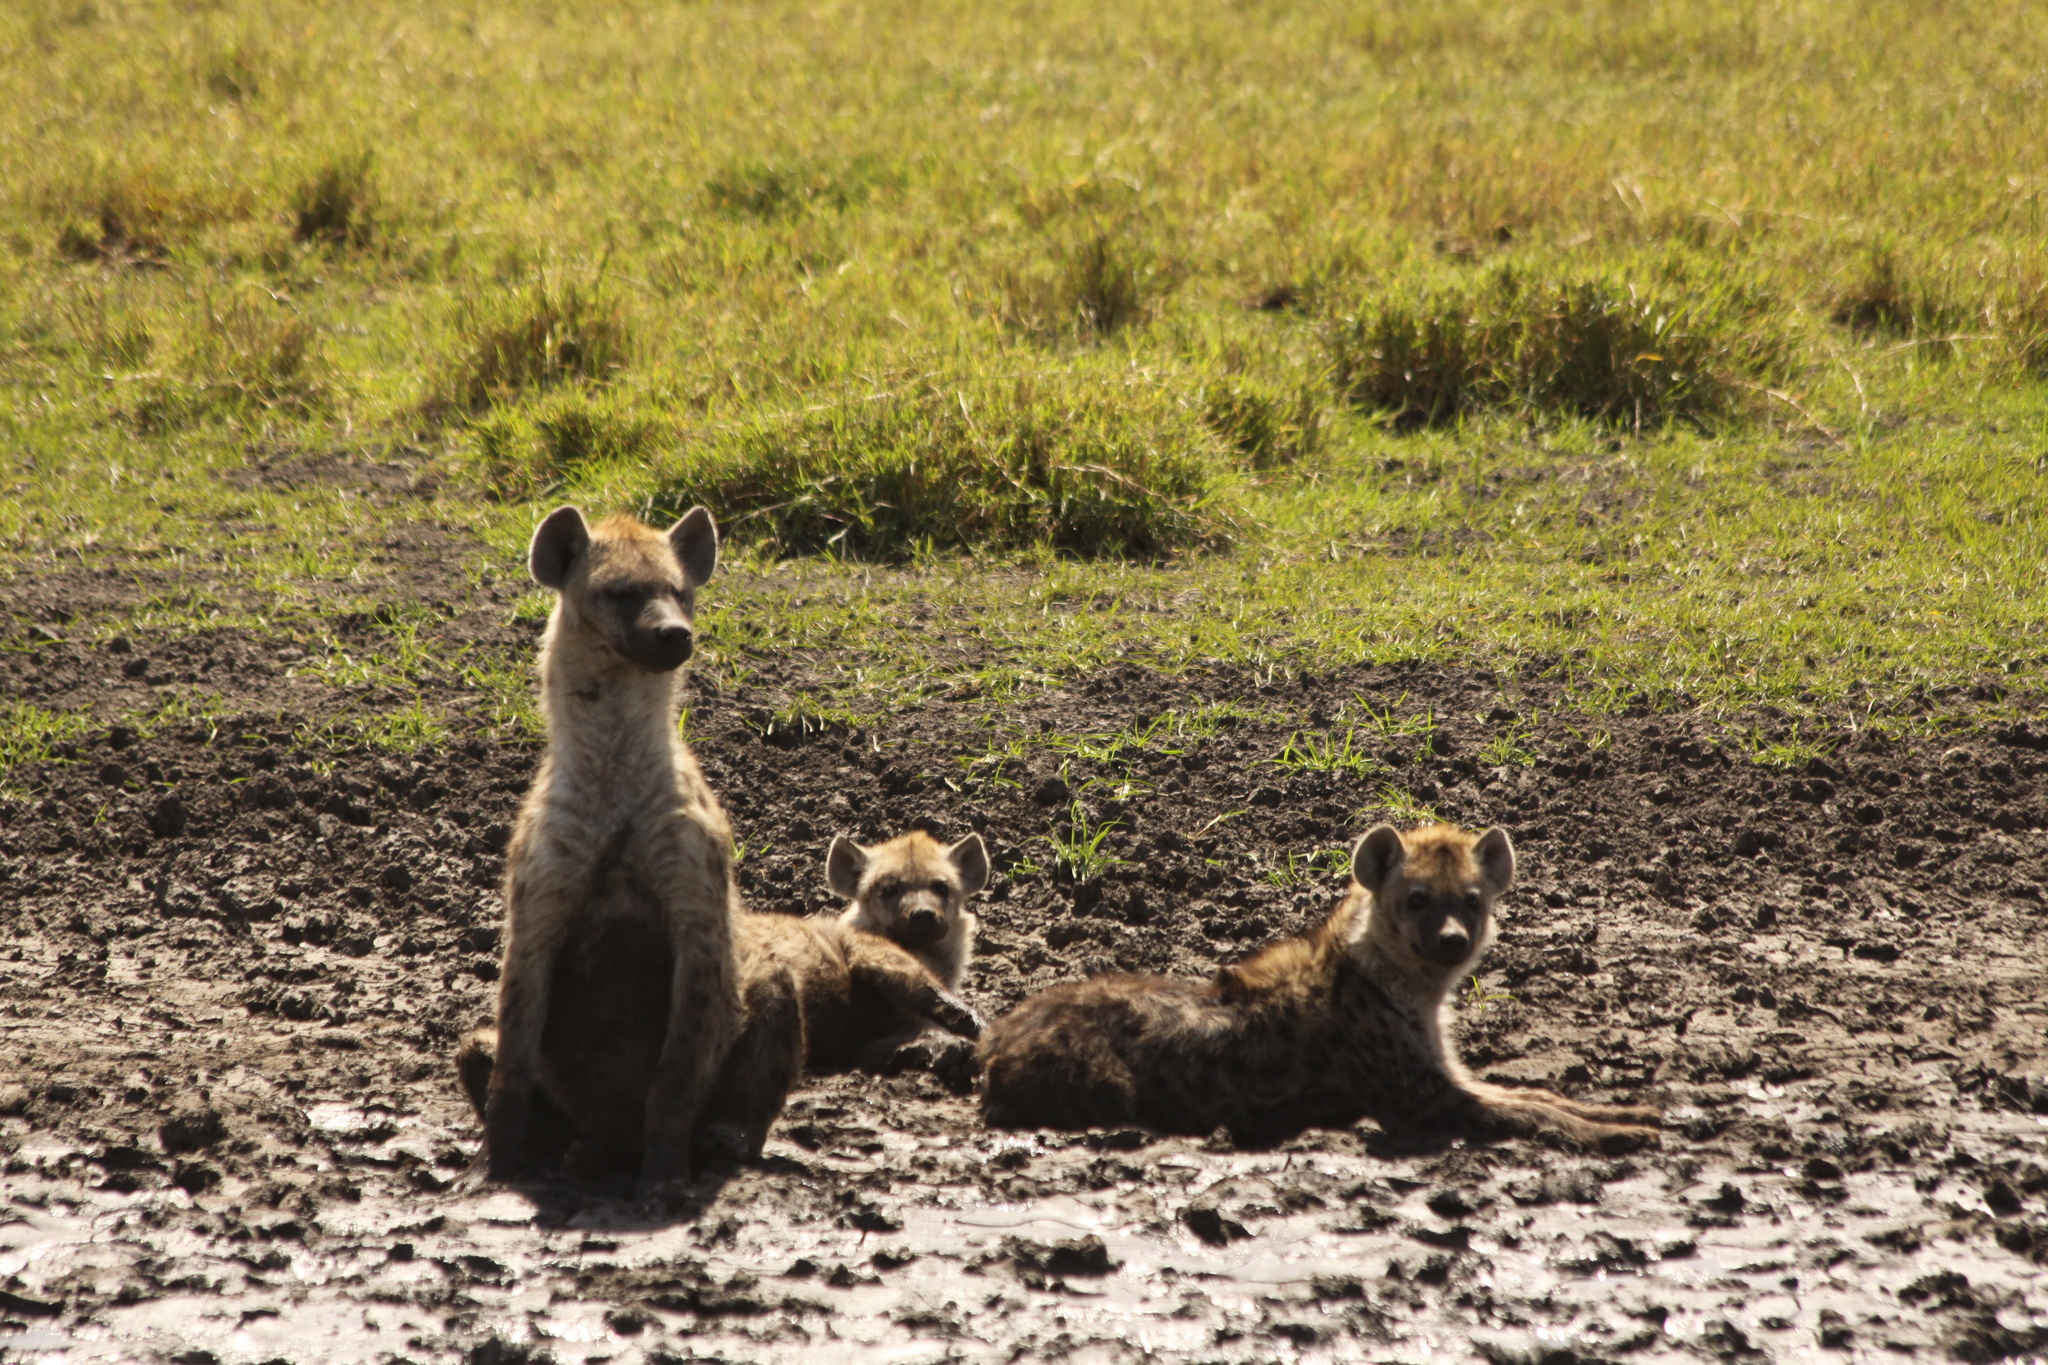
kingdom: Animalia
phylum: Chordata
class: Mammalia
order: Carnivora
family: Hyaenidae
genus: Crocuta
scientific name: Crocuta crocuta
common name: Spotted hyaena
